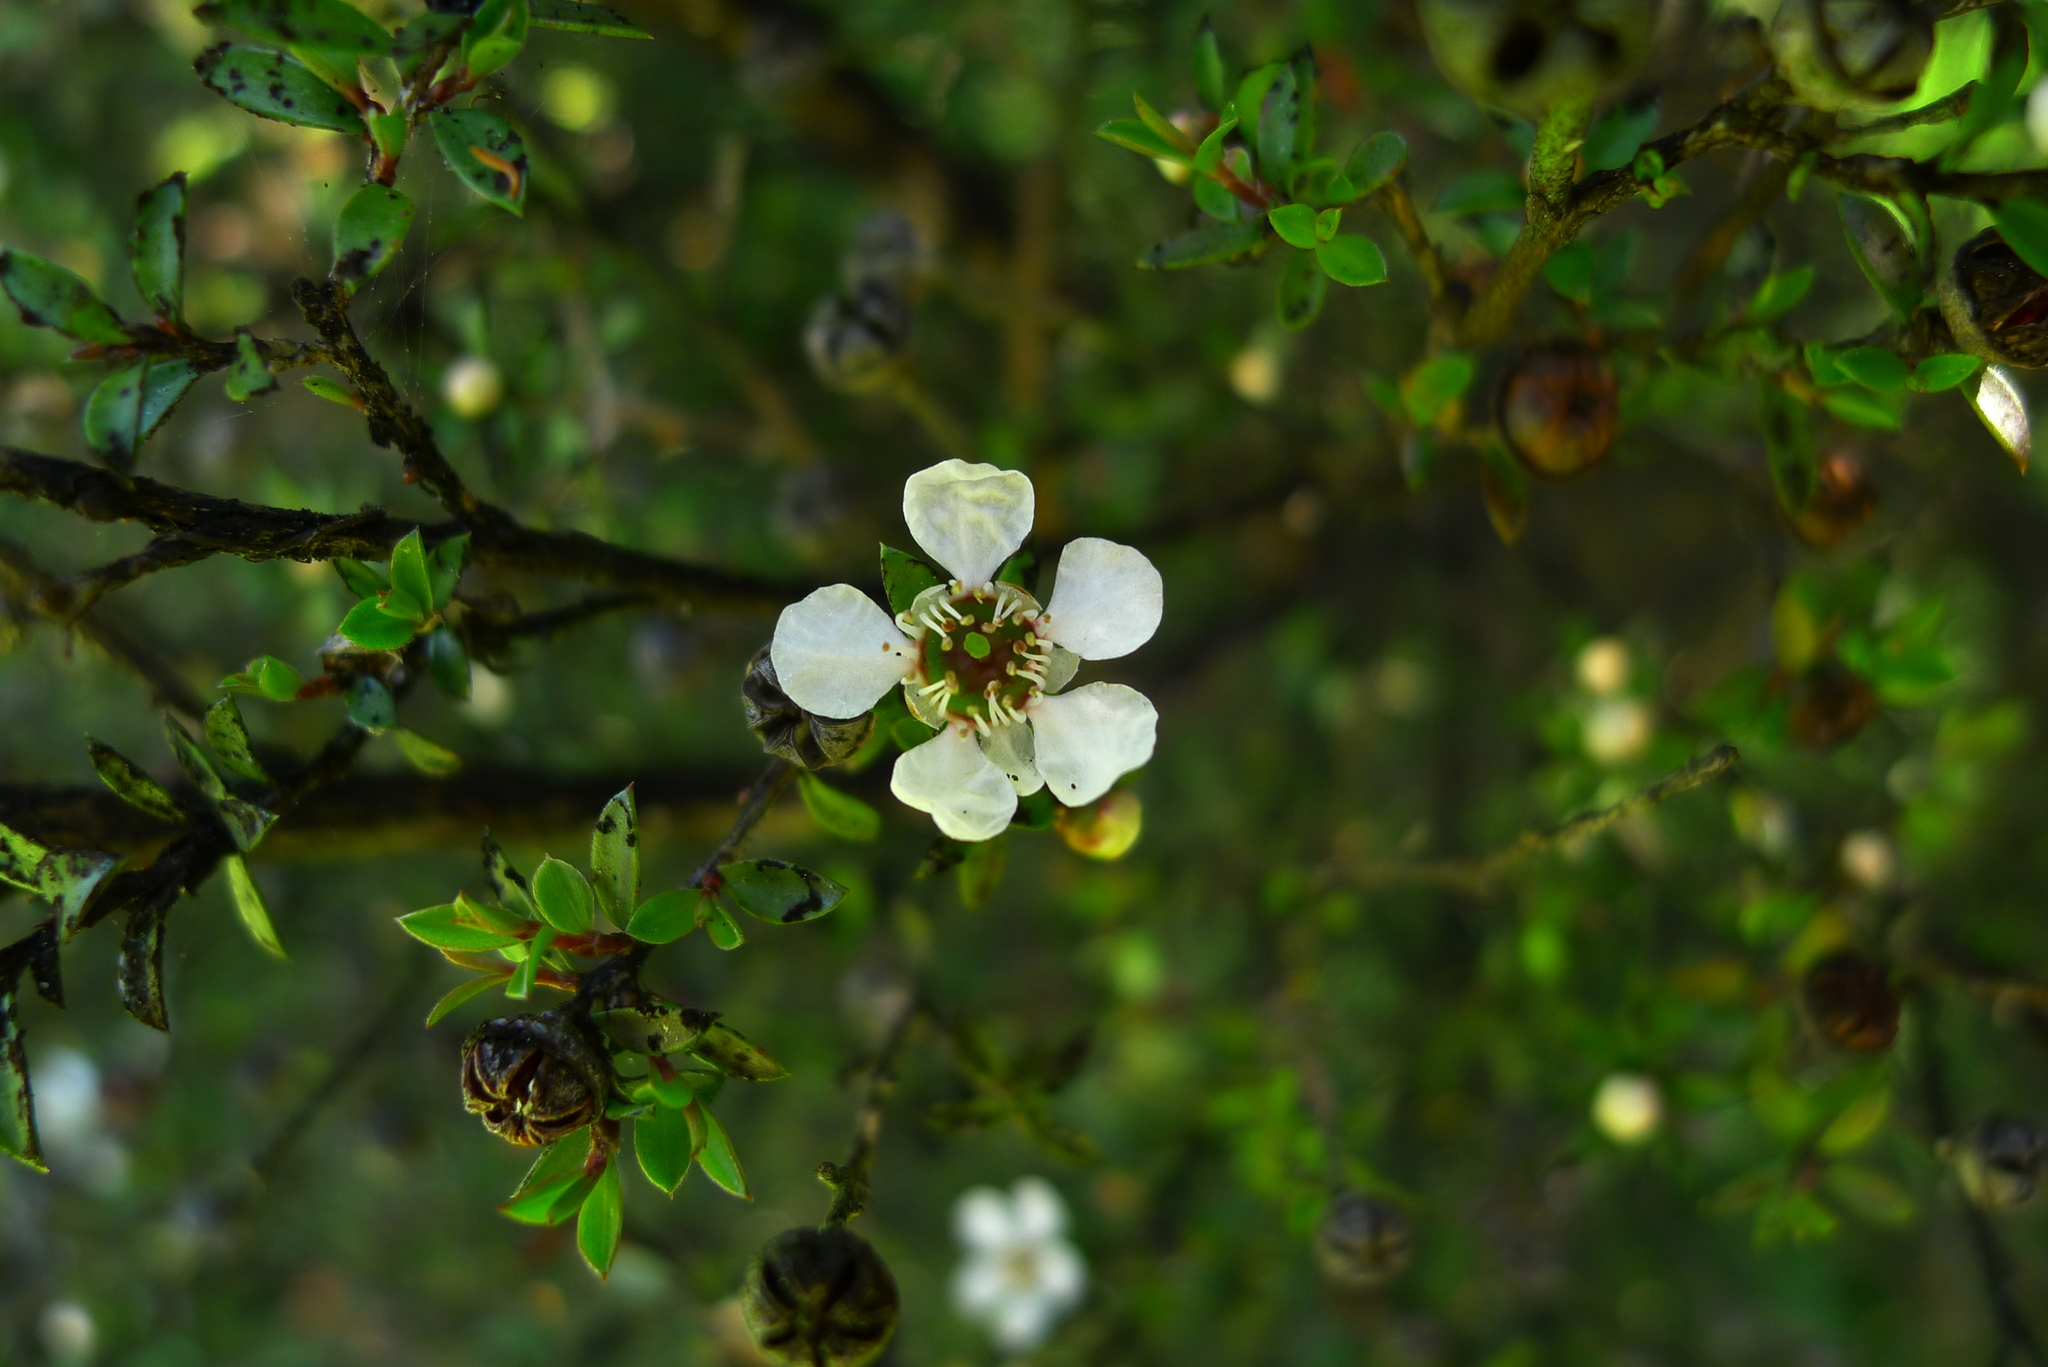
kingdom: Plantae
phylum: Tracheophyta
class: Magnoliopsida
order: Myrtales
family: Myrtaceae
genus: Leptospermum
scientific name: Leptospermum scoparium
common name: Broom tea-tree
